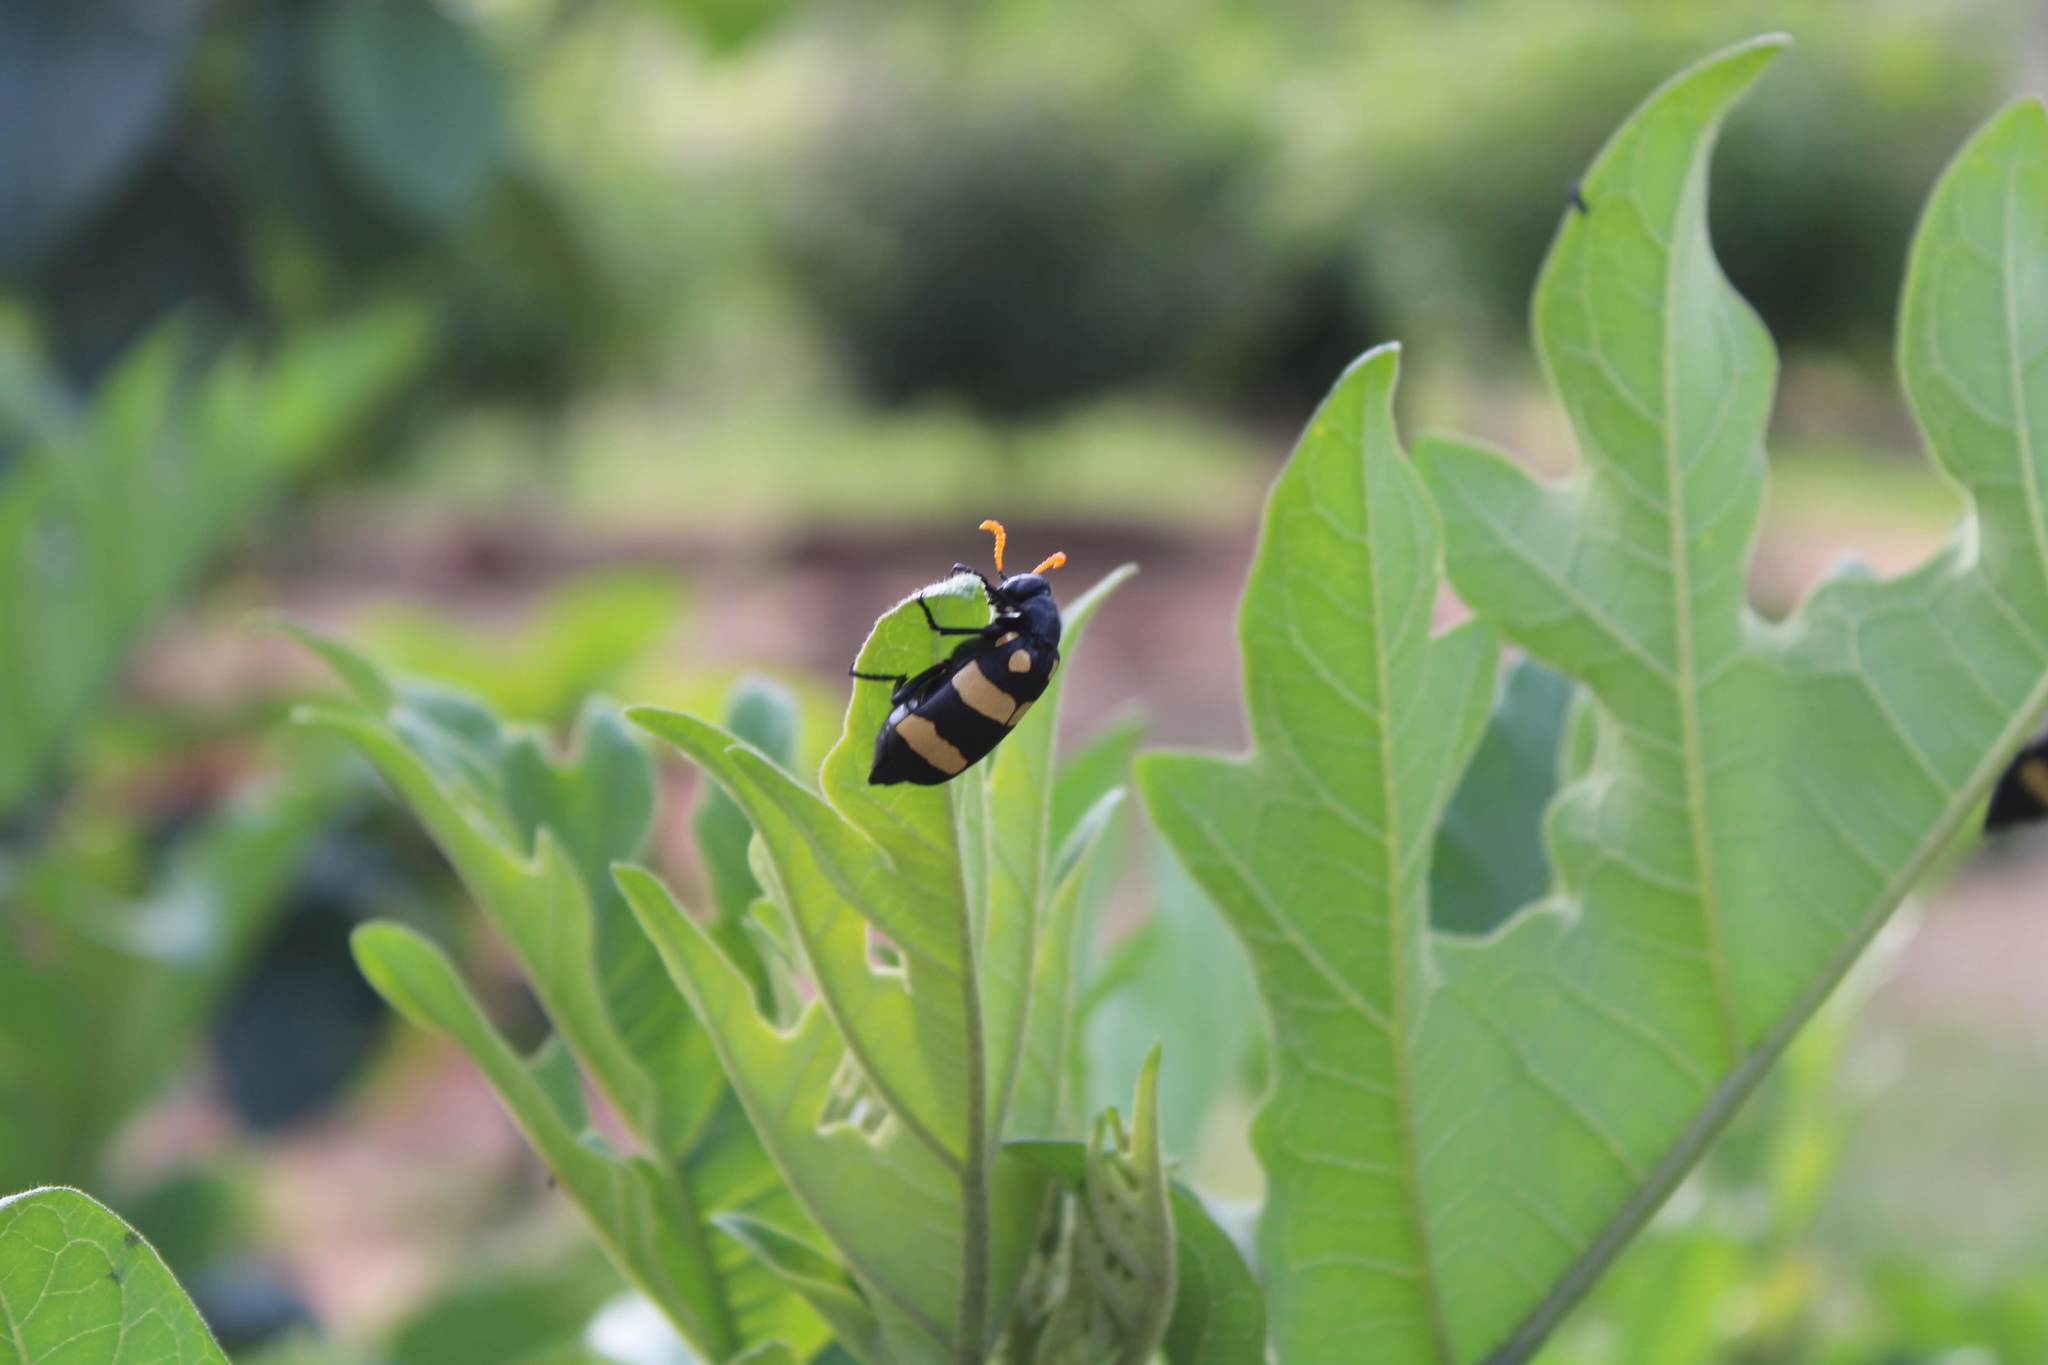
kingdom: Animalia
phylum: Arthropoda
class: Insecta
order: Coleoptera
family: Meloidae
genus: Hycleus
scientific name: Hycleus
